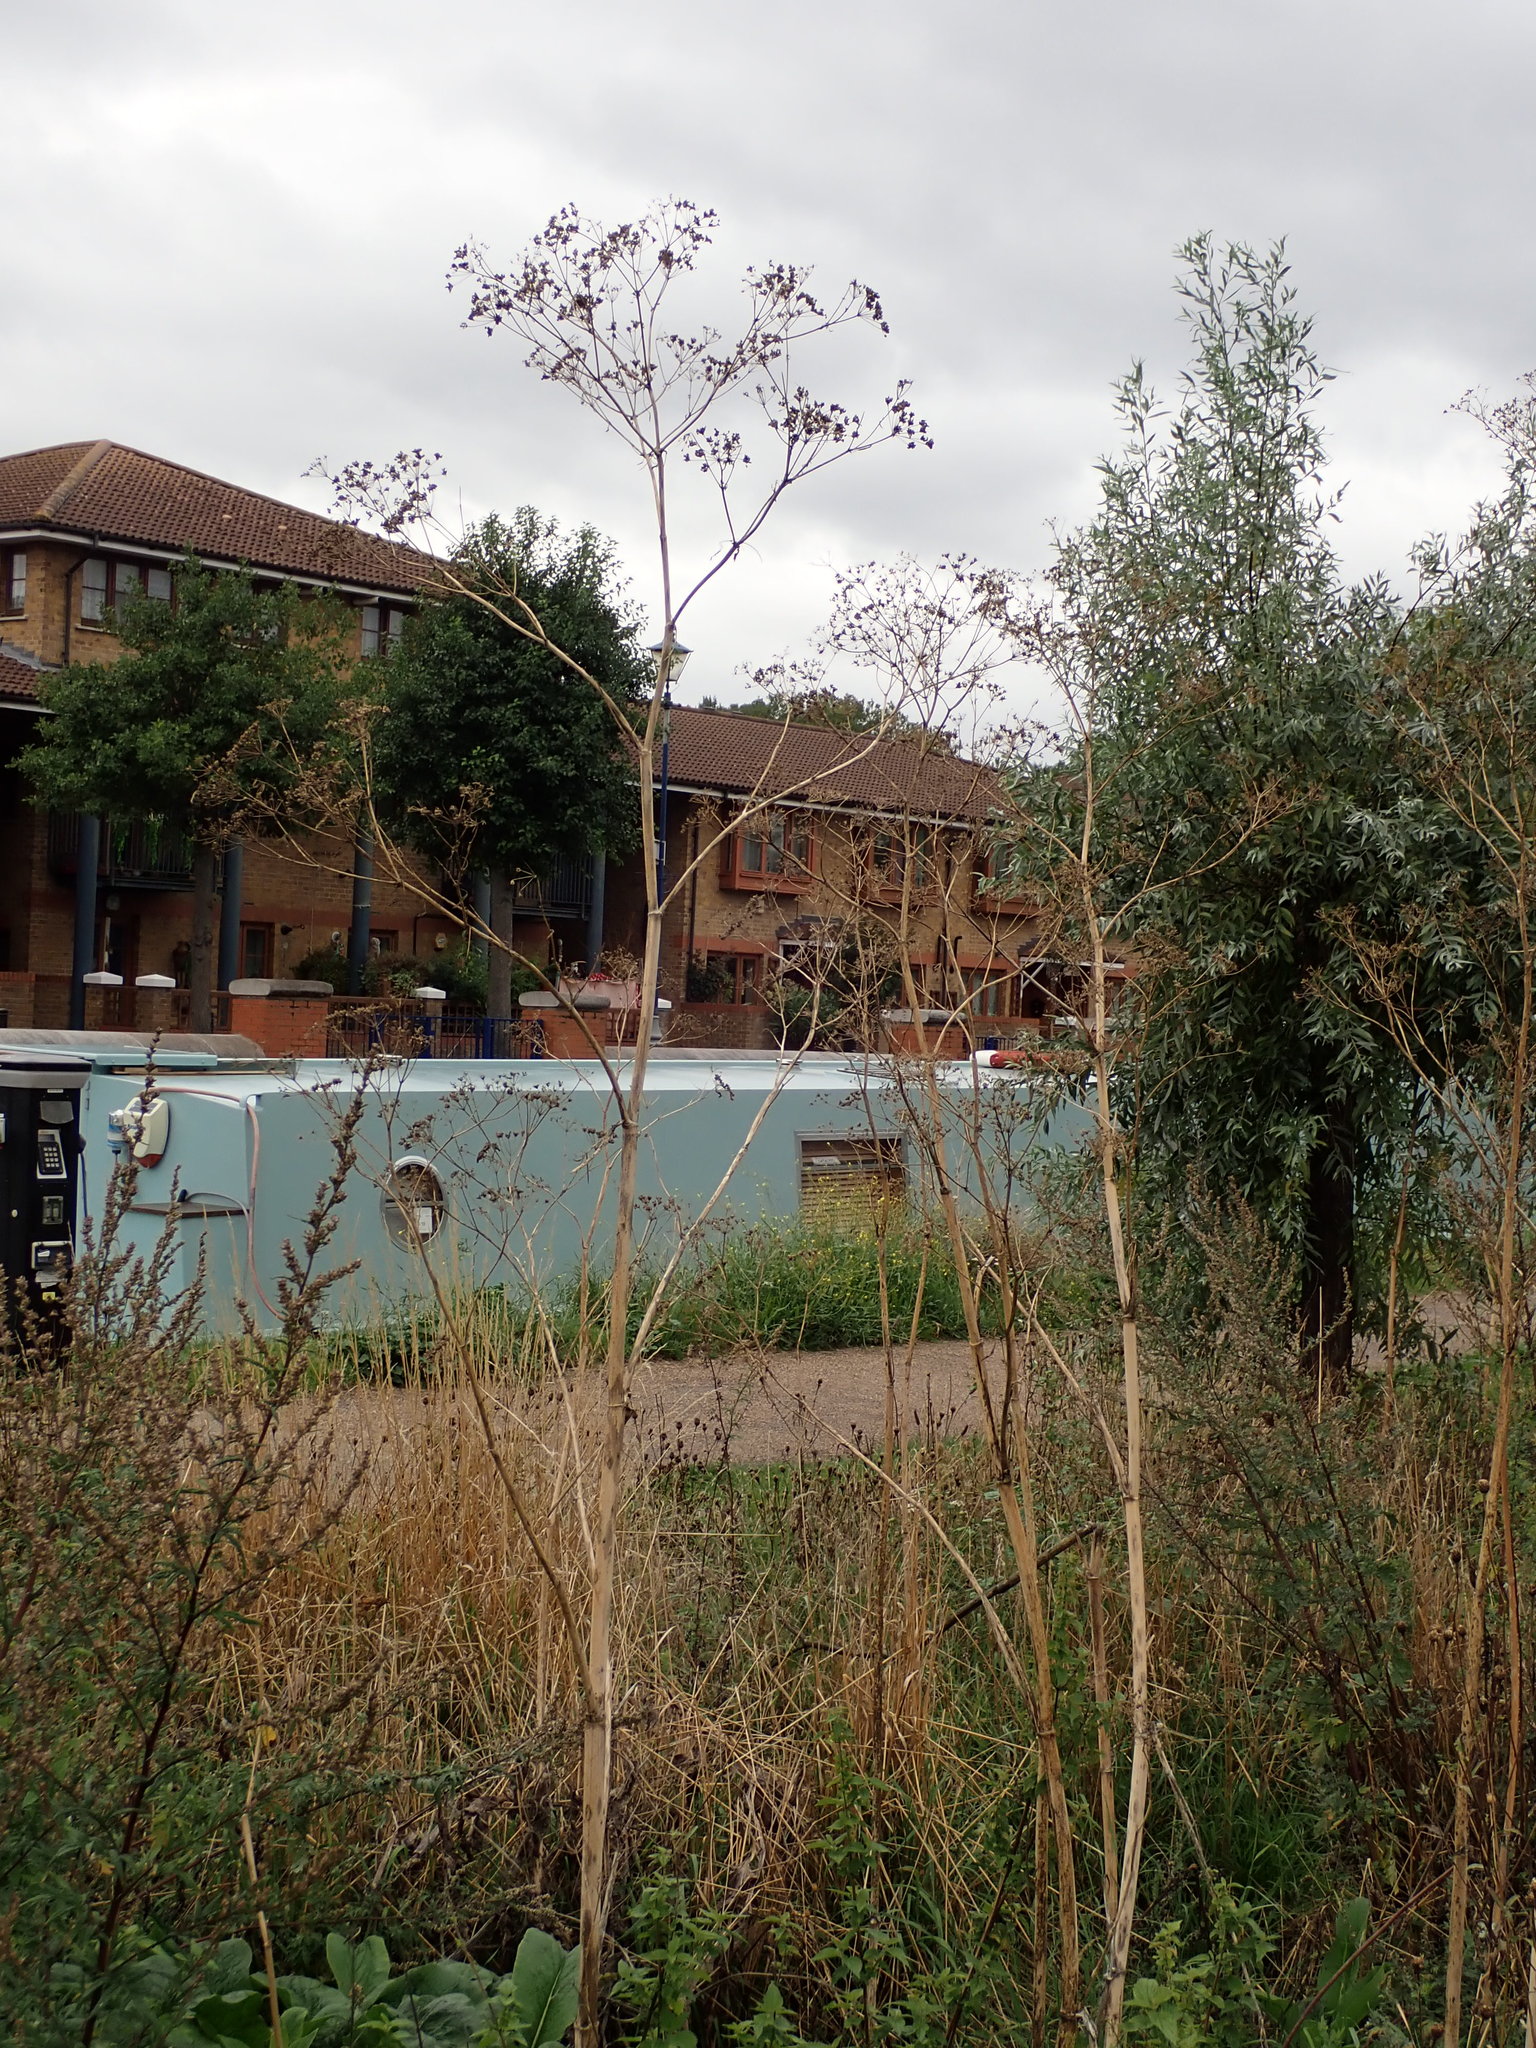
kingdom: Plantae
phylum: Tracheophyta
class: Magnoliopsida
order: Apiales
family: Apiaceae
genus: Conium
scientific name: Conium maculatum
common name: Hemlock
